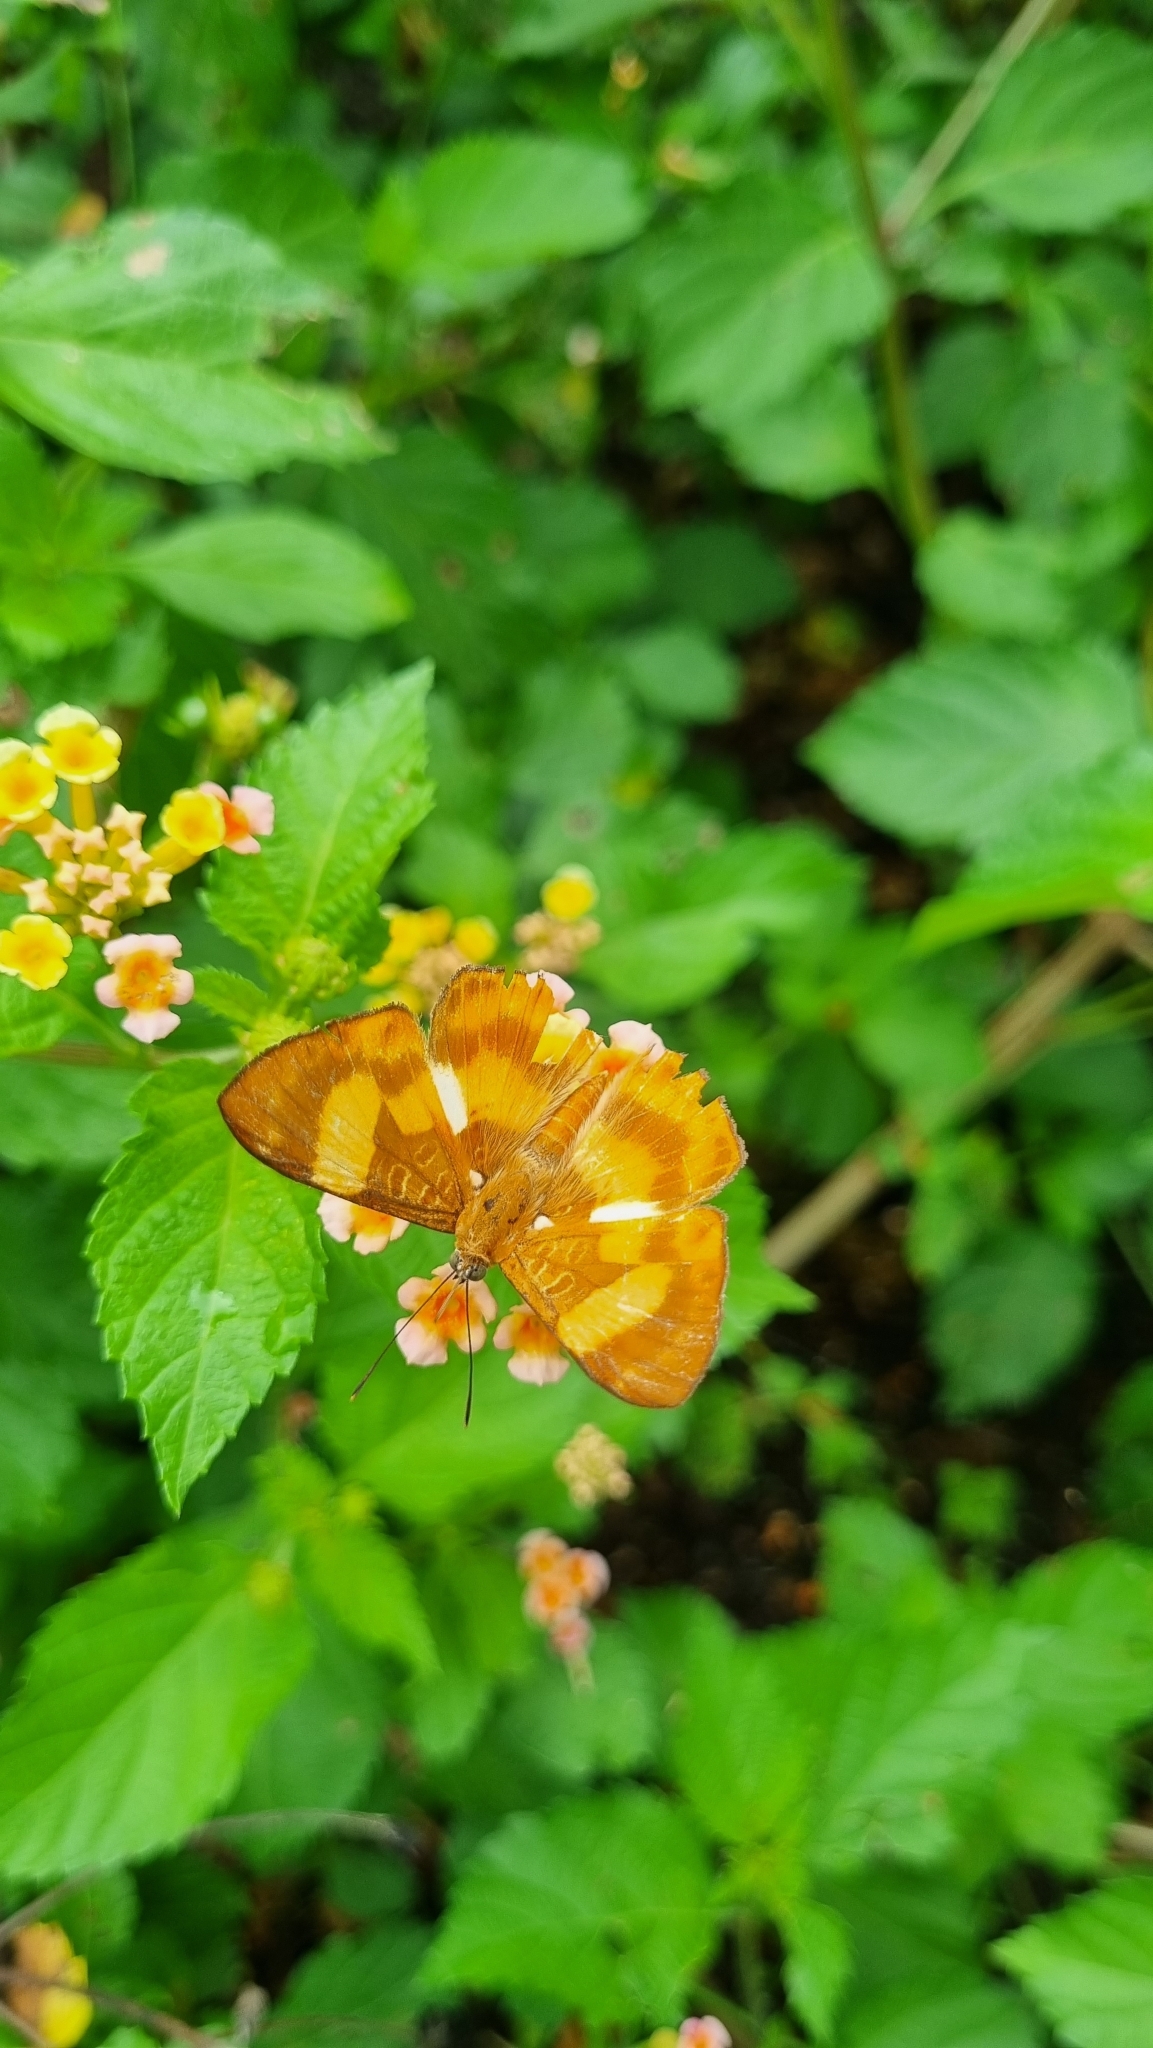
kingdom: Animalia
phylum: Arthropoda
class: Insecta
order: Lepidoptera
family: Riodinidae
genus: Nymula
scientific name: Nymula odites
